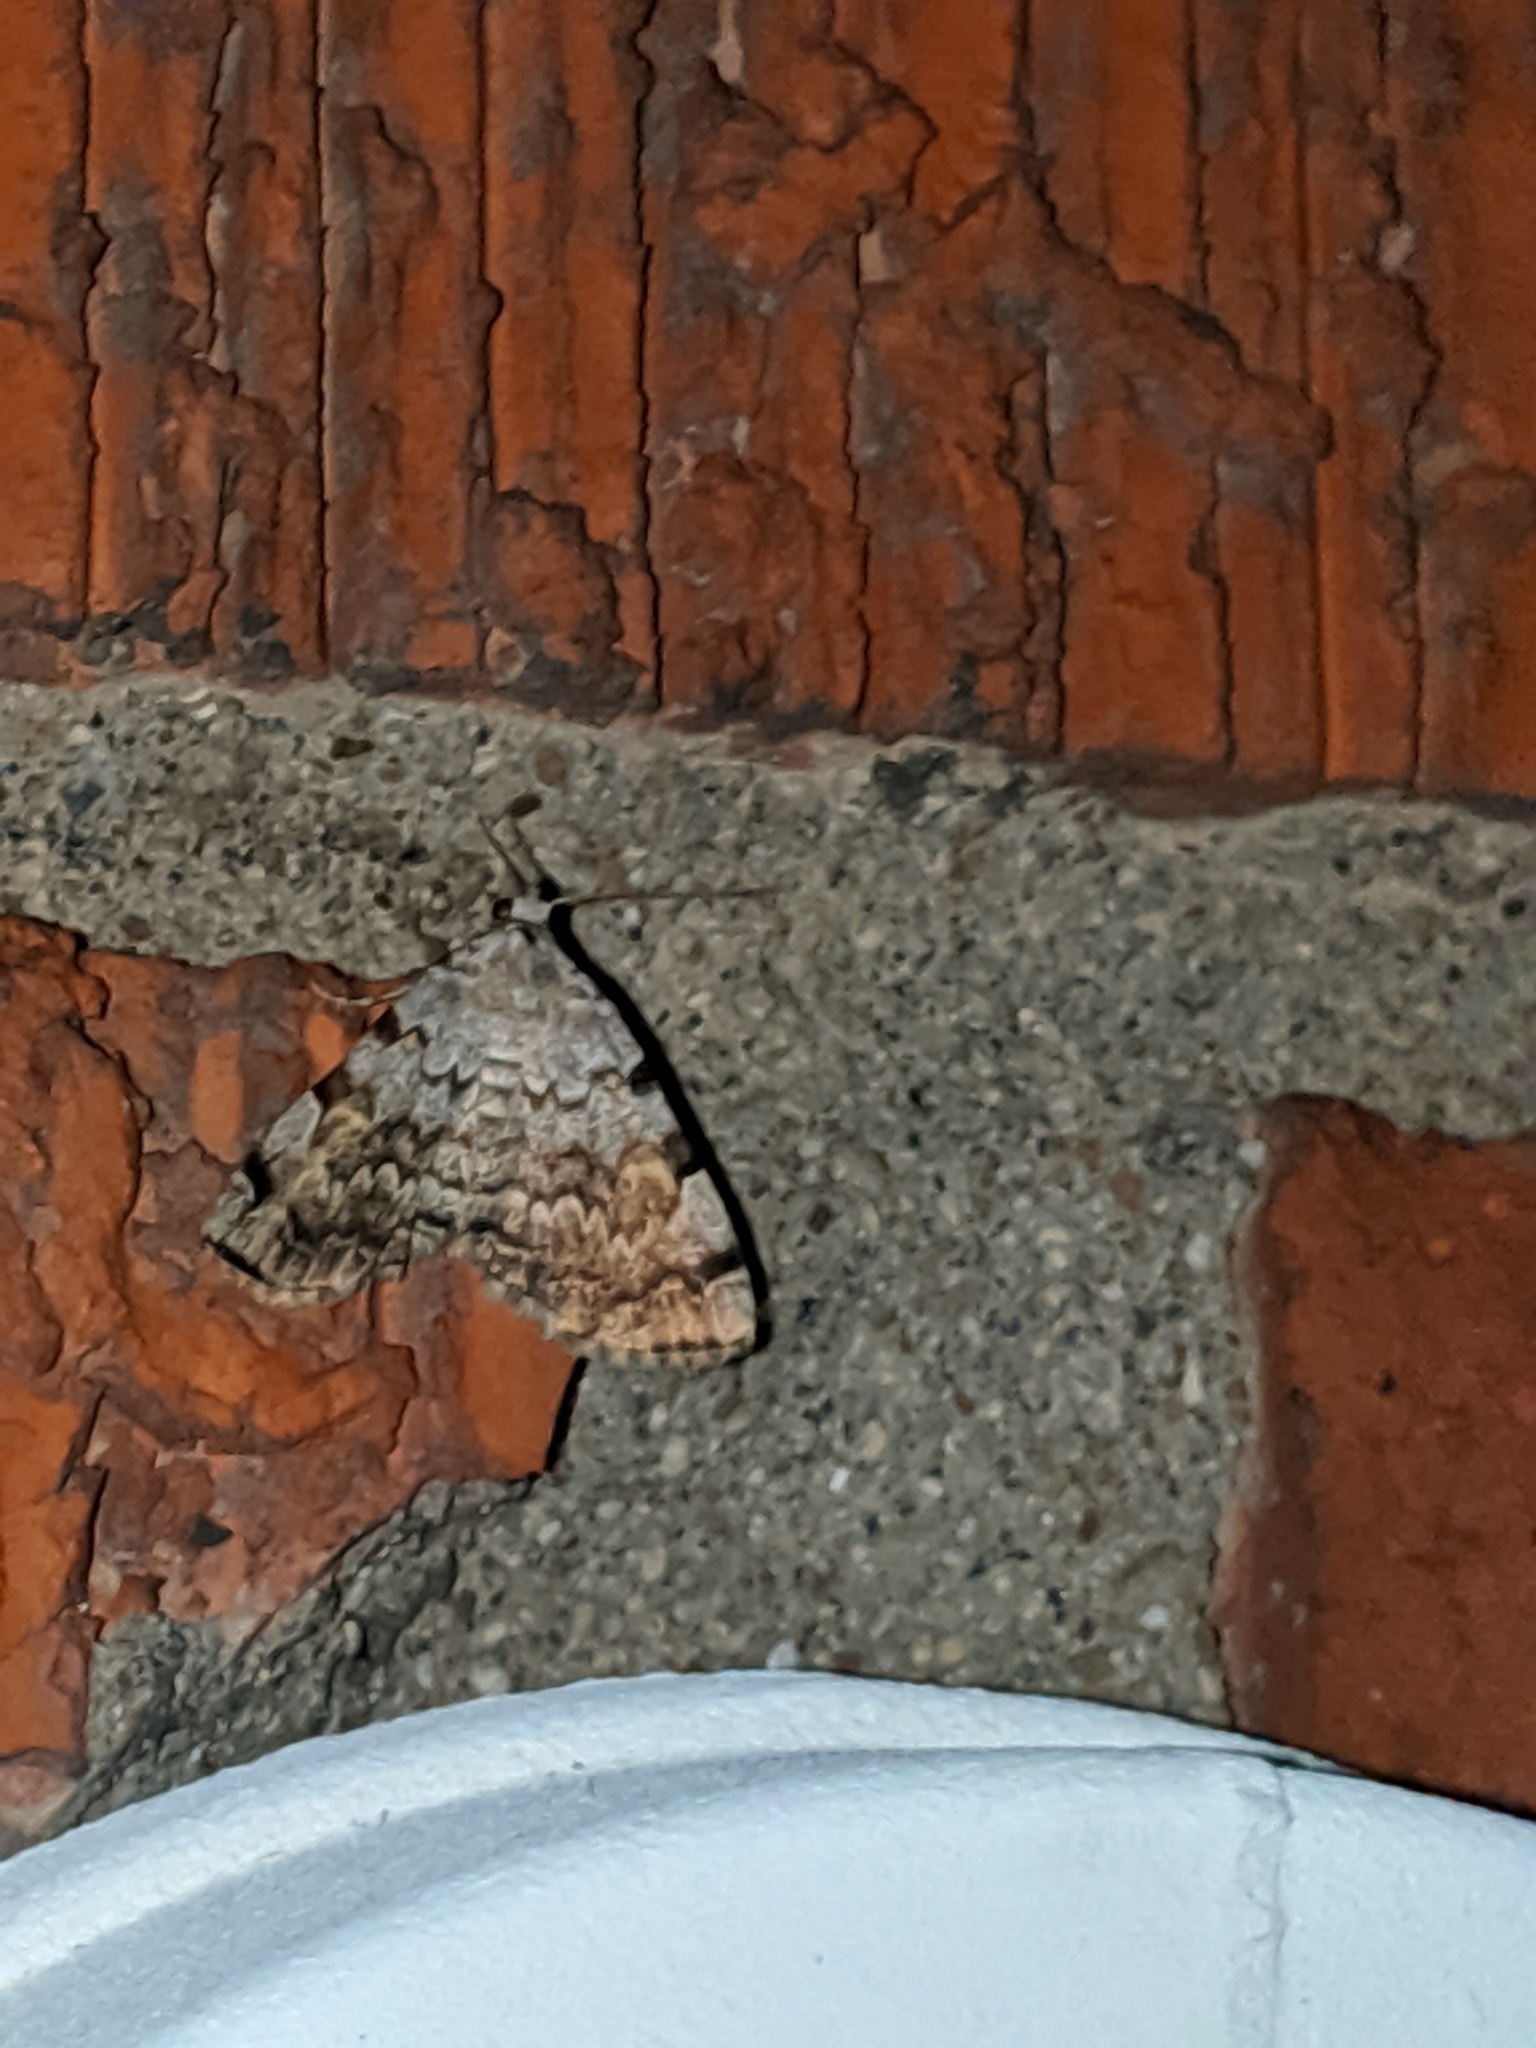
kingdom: Animalia
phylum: Arthropoda
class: Insecta
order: Lepidoptera
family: Erebidae
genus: Idia
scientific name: Idia americalis
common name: American idia moth
